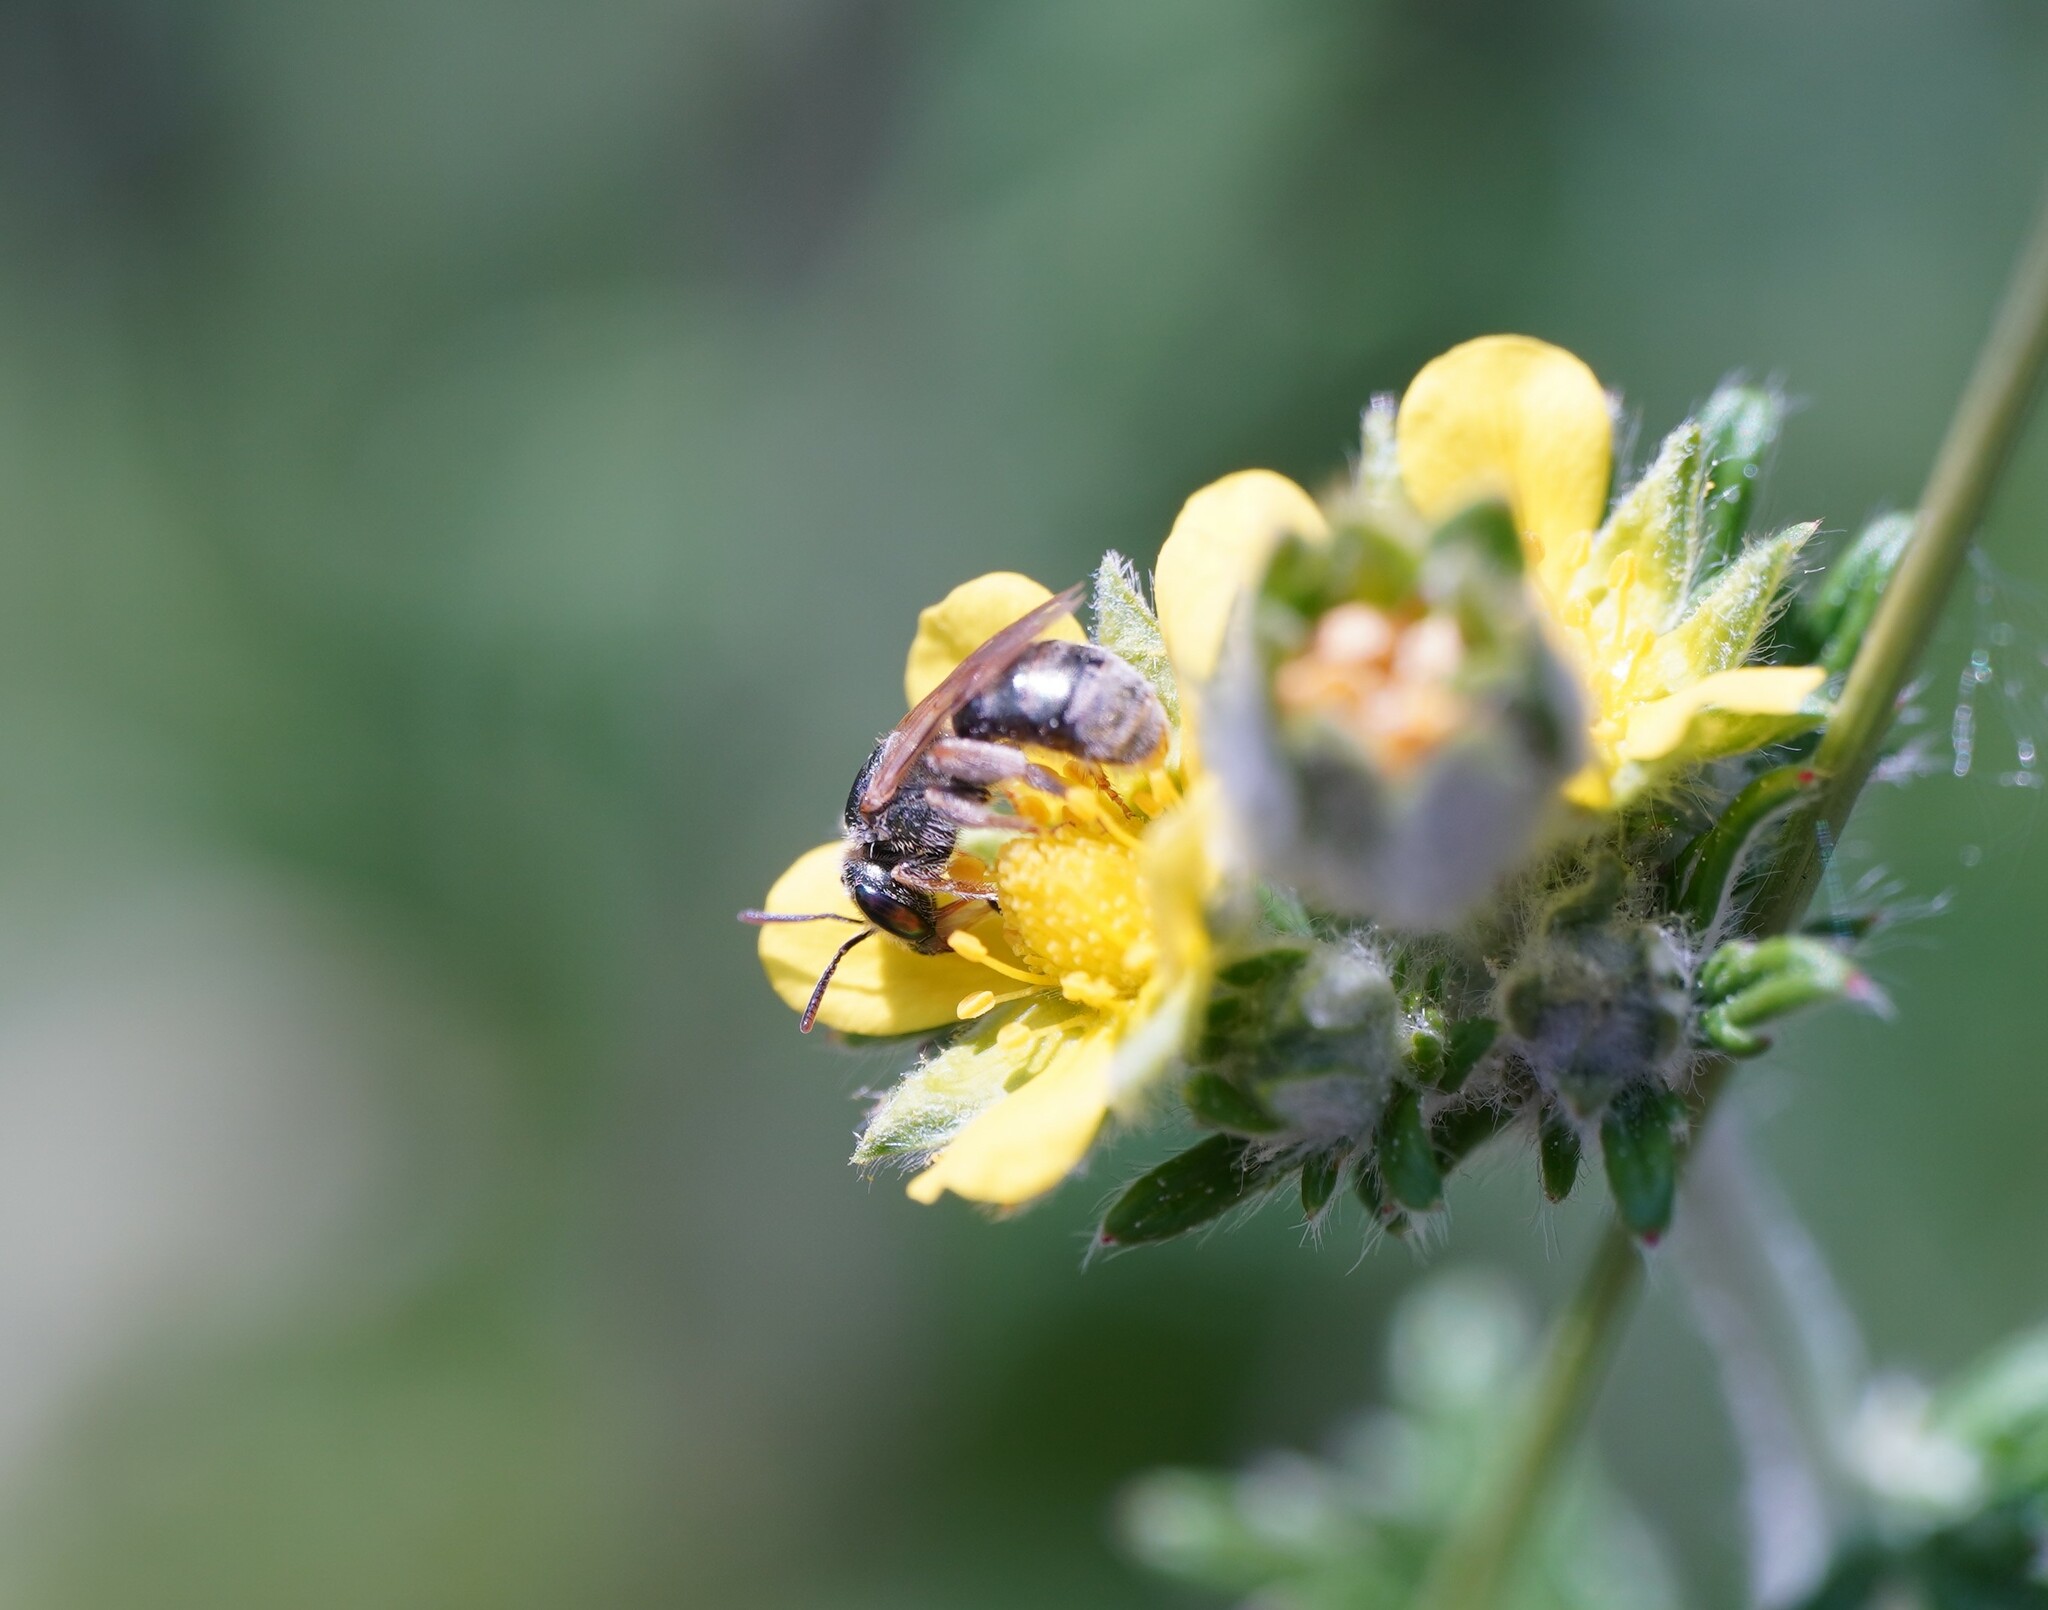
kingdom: Animalia
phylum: Arthropoda
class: Insecta
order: Hymenoptera
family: Halictidae
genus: Halictus
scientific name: Halictus semitectus
